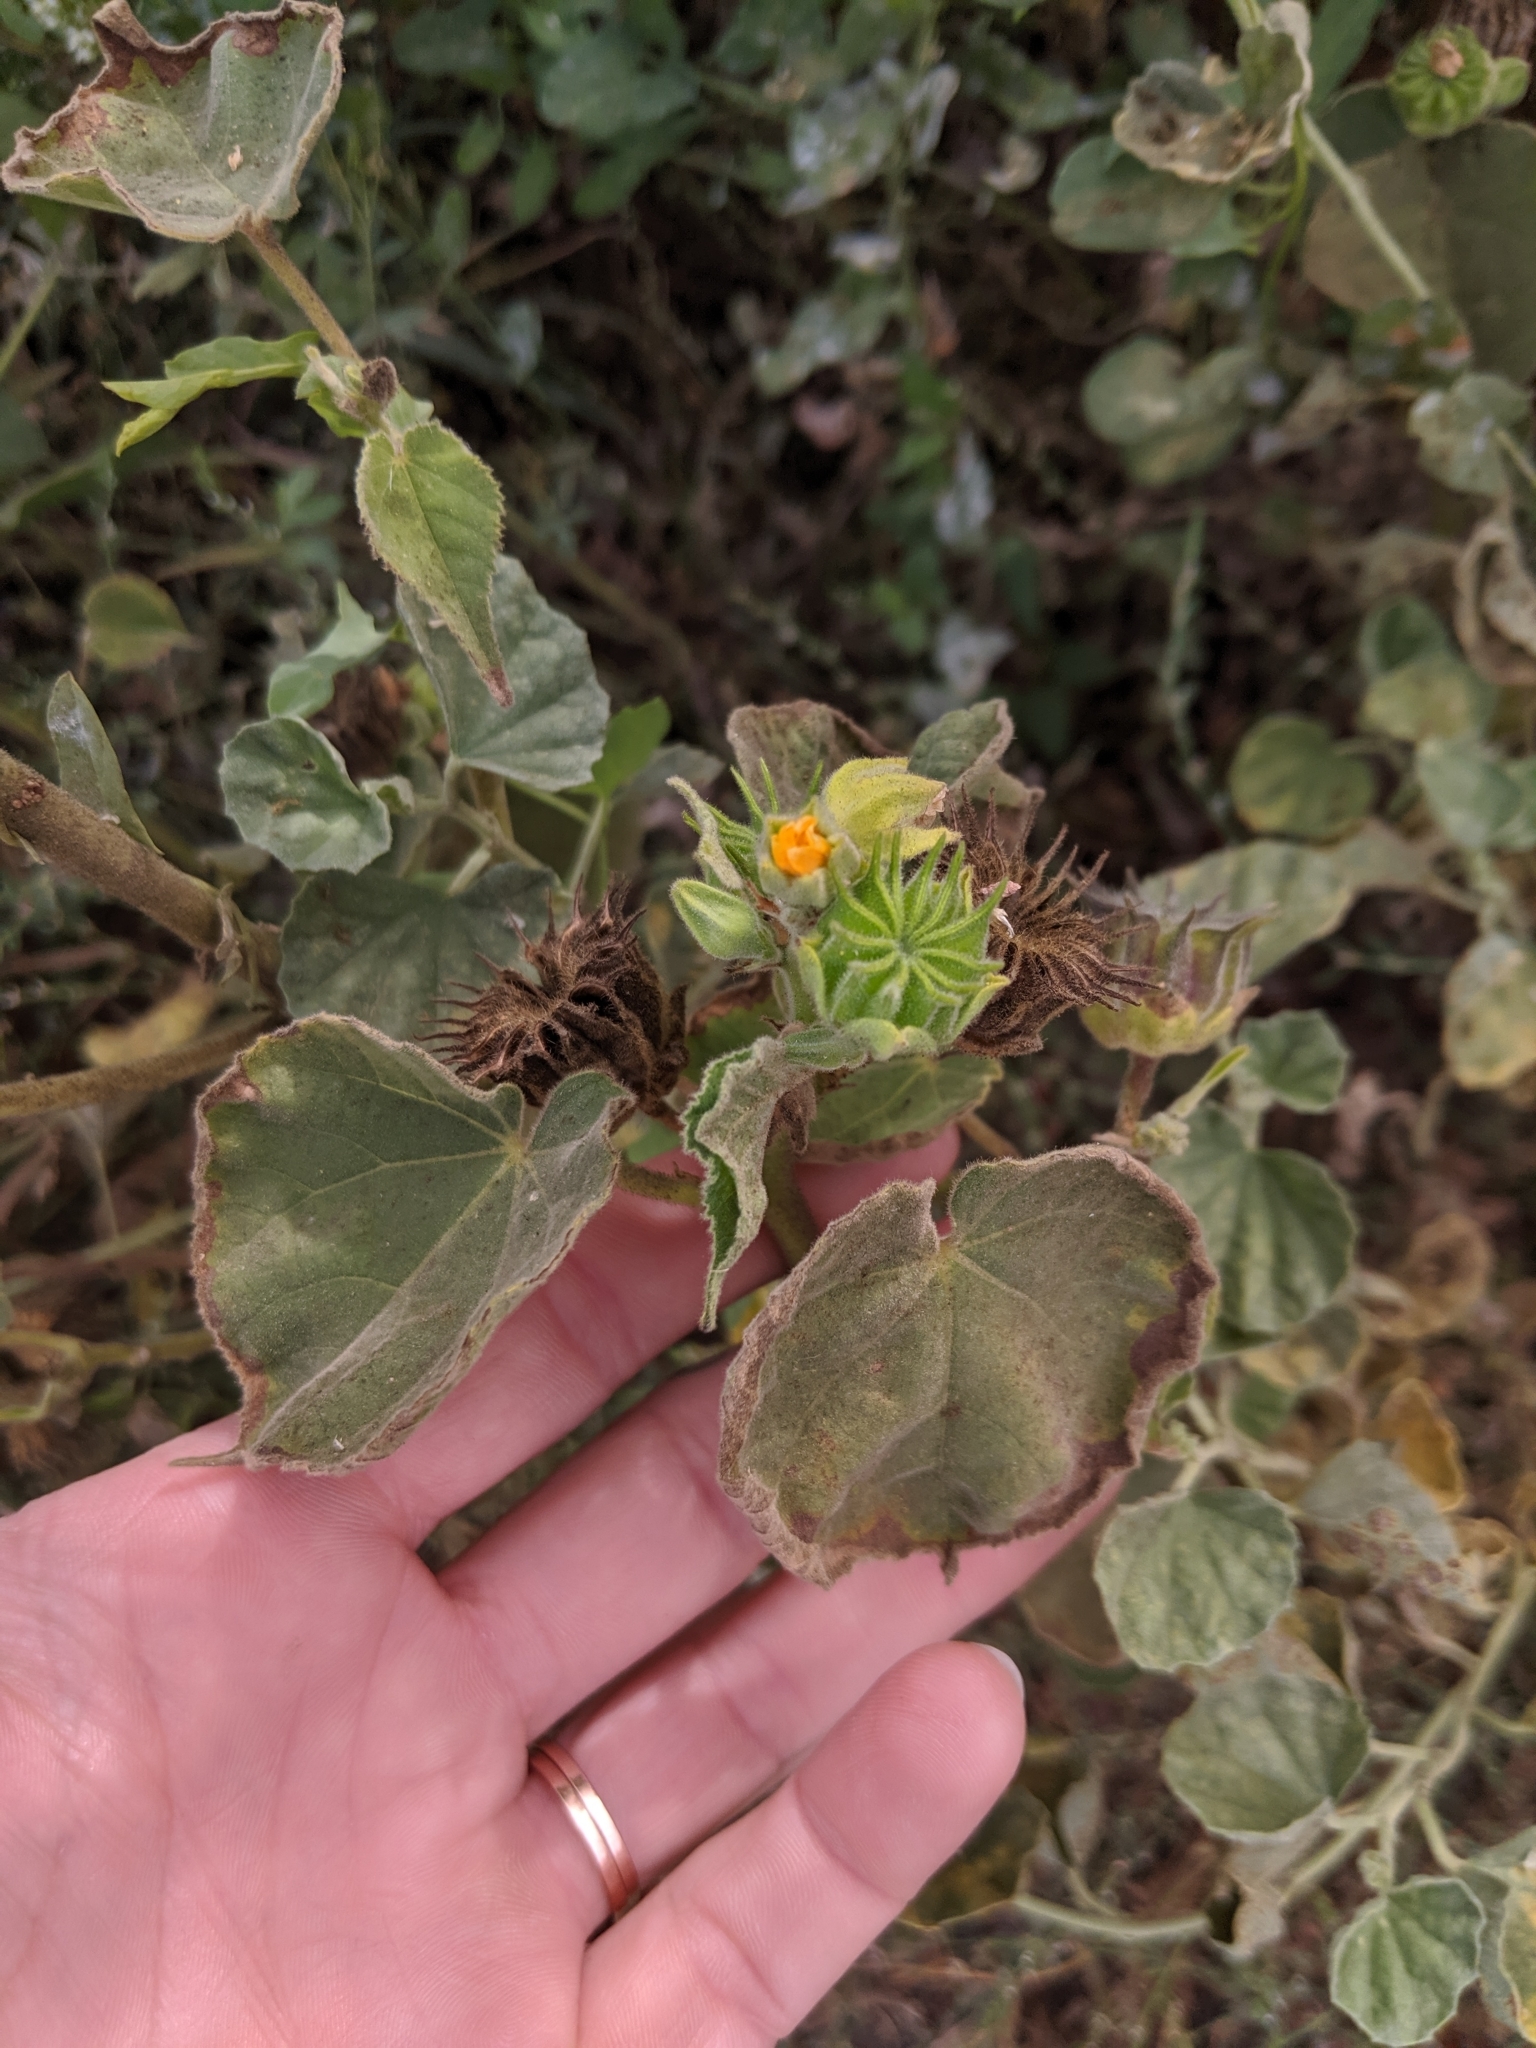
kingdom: Plantae
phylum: Tracheophyta
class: Magnoliopsida
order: Malvales
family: Malvaceae
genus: Abutilon
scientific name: Abutilon theophrasti
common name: Velvetleaf
